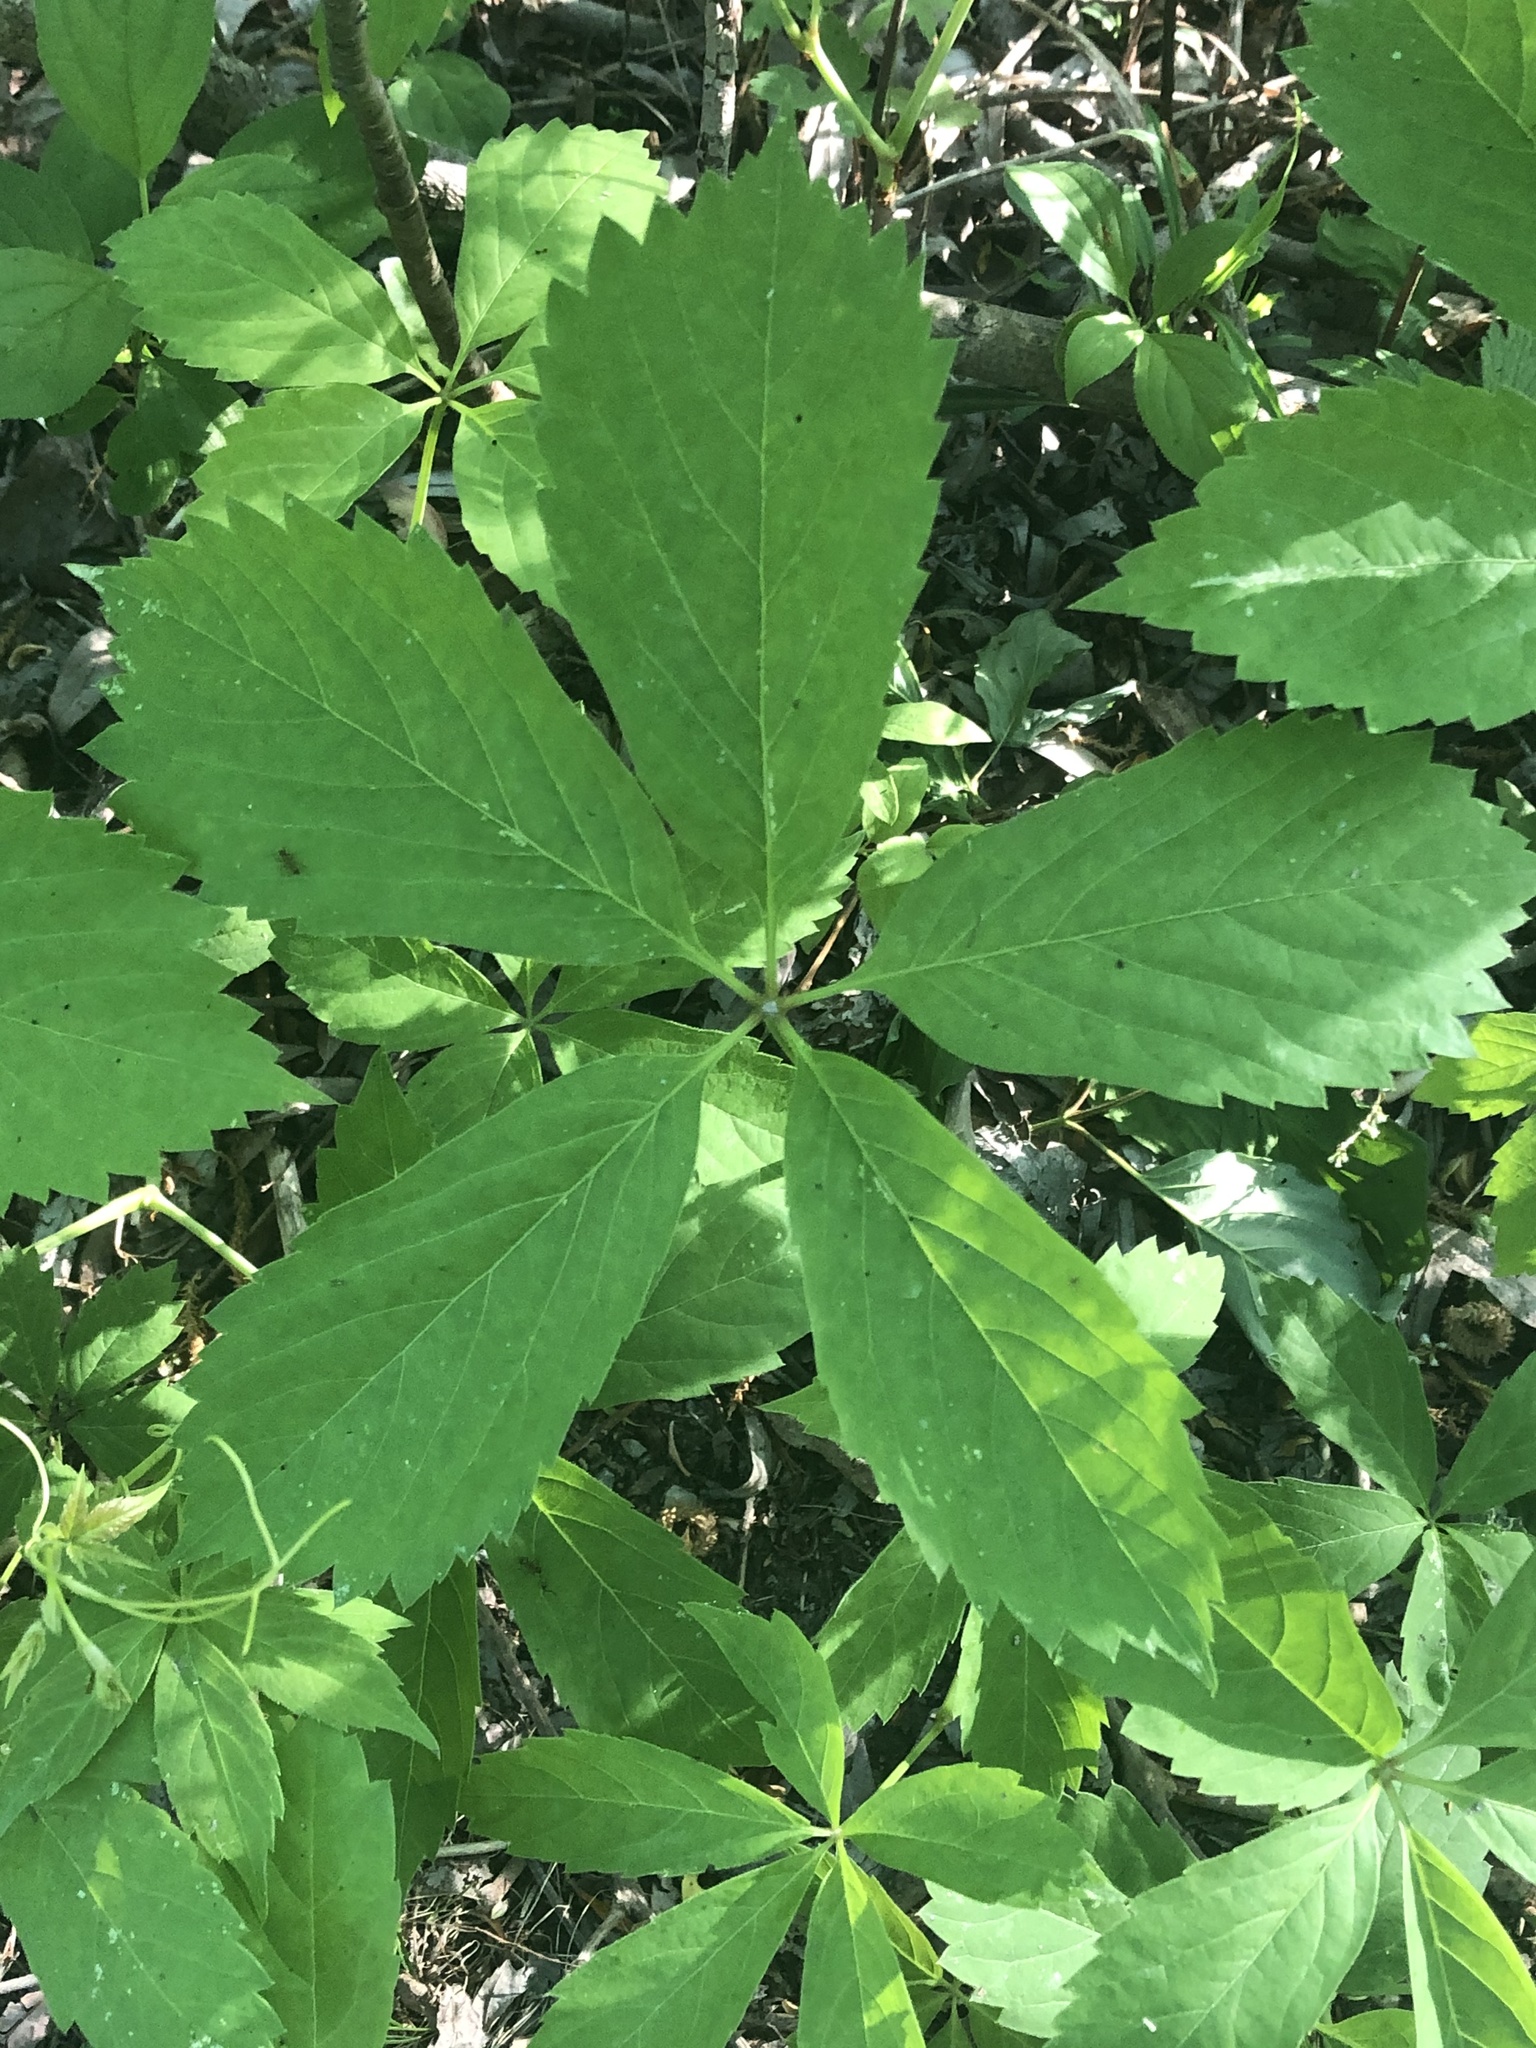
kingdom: Plantae
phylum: Tracheophyta
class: Magnoliopsida
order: Vitales
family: Vitaceae
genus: Parthenocissus
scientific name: Parthenocissus quinquefolia
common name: Virginia-creeper
